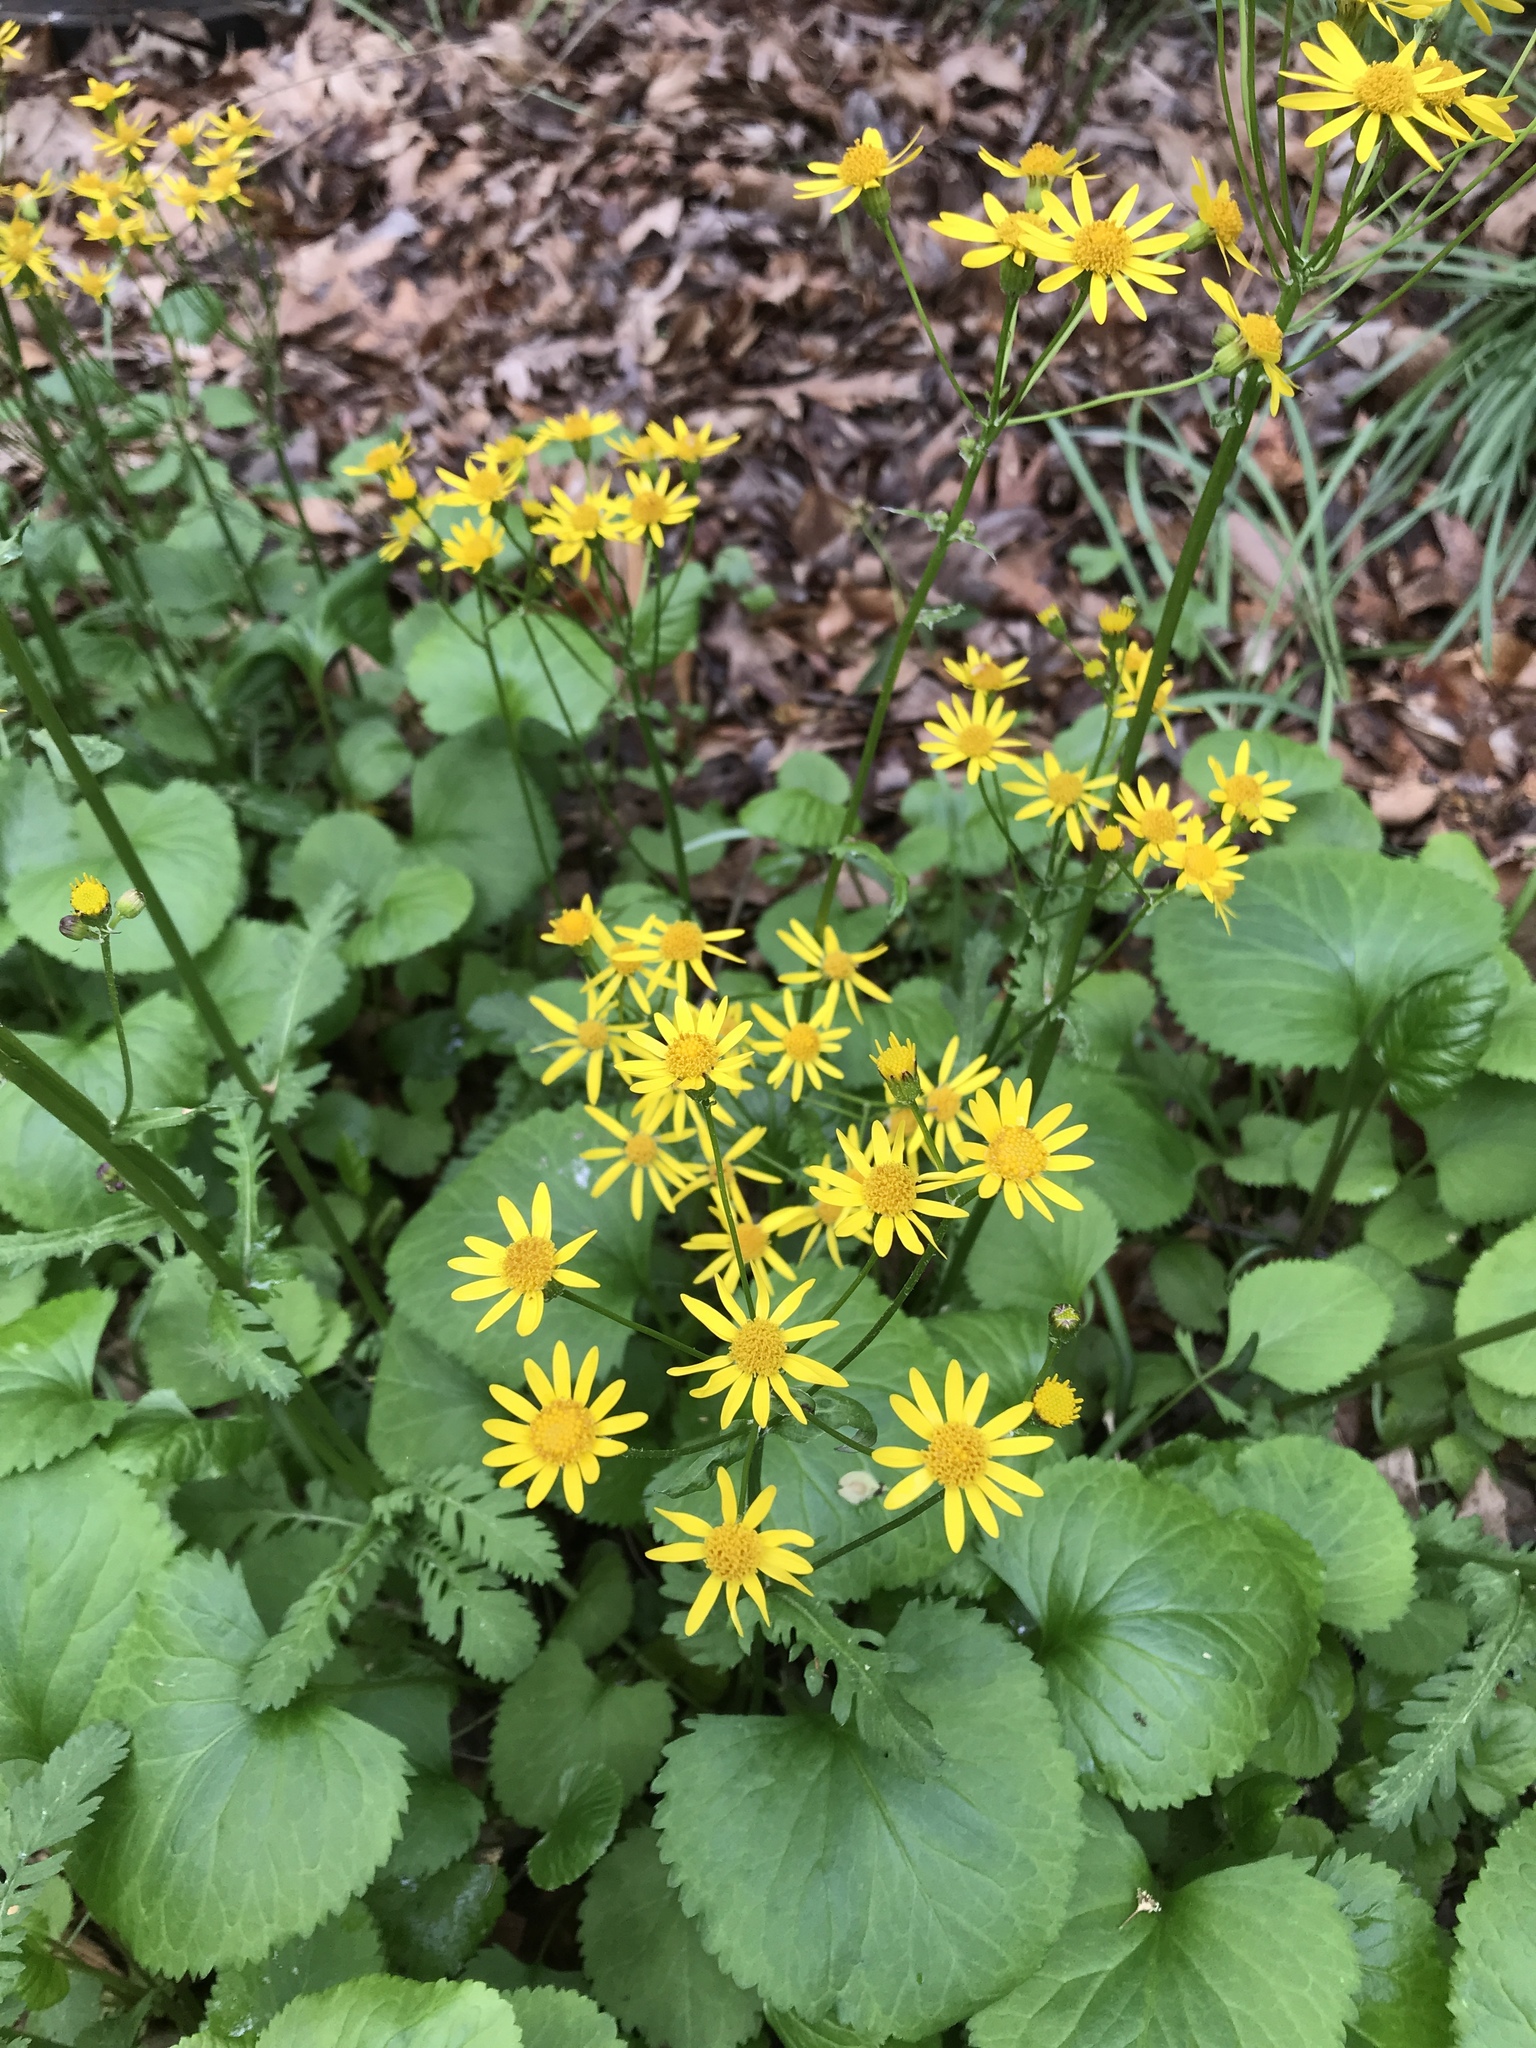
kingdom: Plantae
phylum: Tracheophyta
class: Magnoliopsida
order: Asterales
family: Asteraceae
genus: Packera
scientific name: Packera aurea
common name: Golden groundsel
